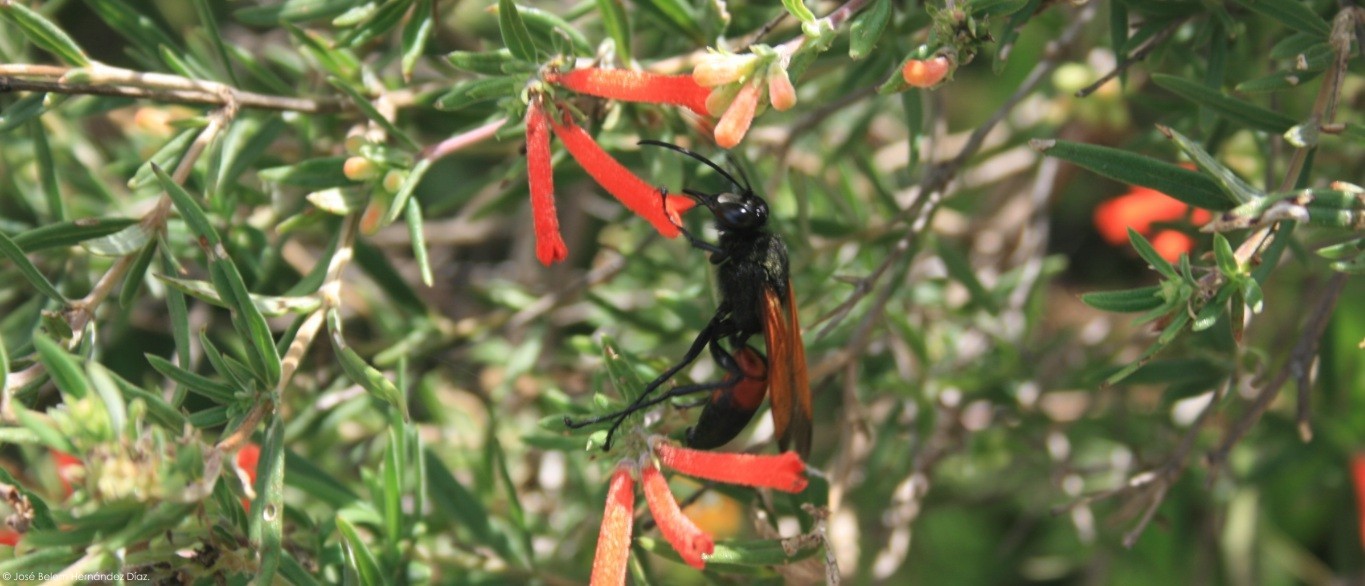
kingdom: Animalia
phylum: Arthropoda
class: Insecta
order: Hymenoptera
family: Sphecidae
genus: Sphex
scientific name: Sphex tepanecus
